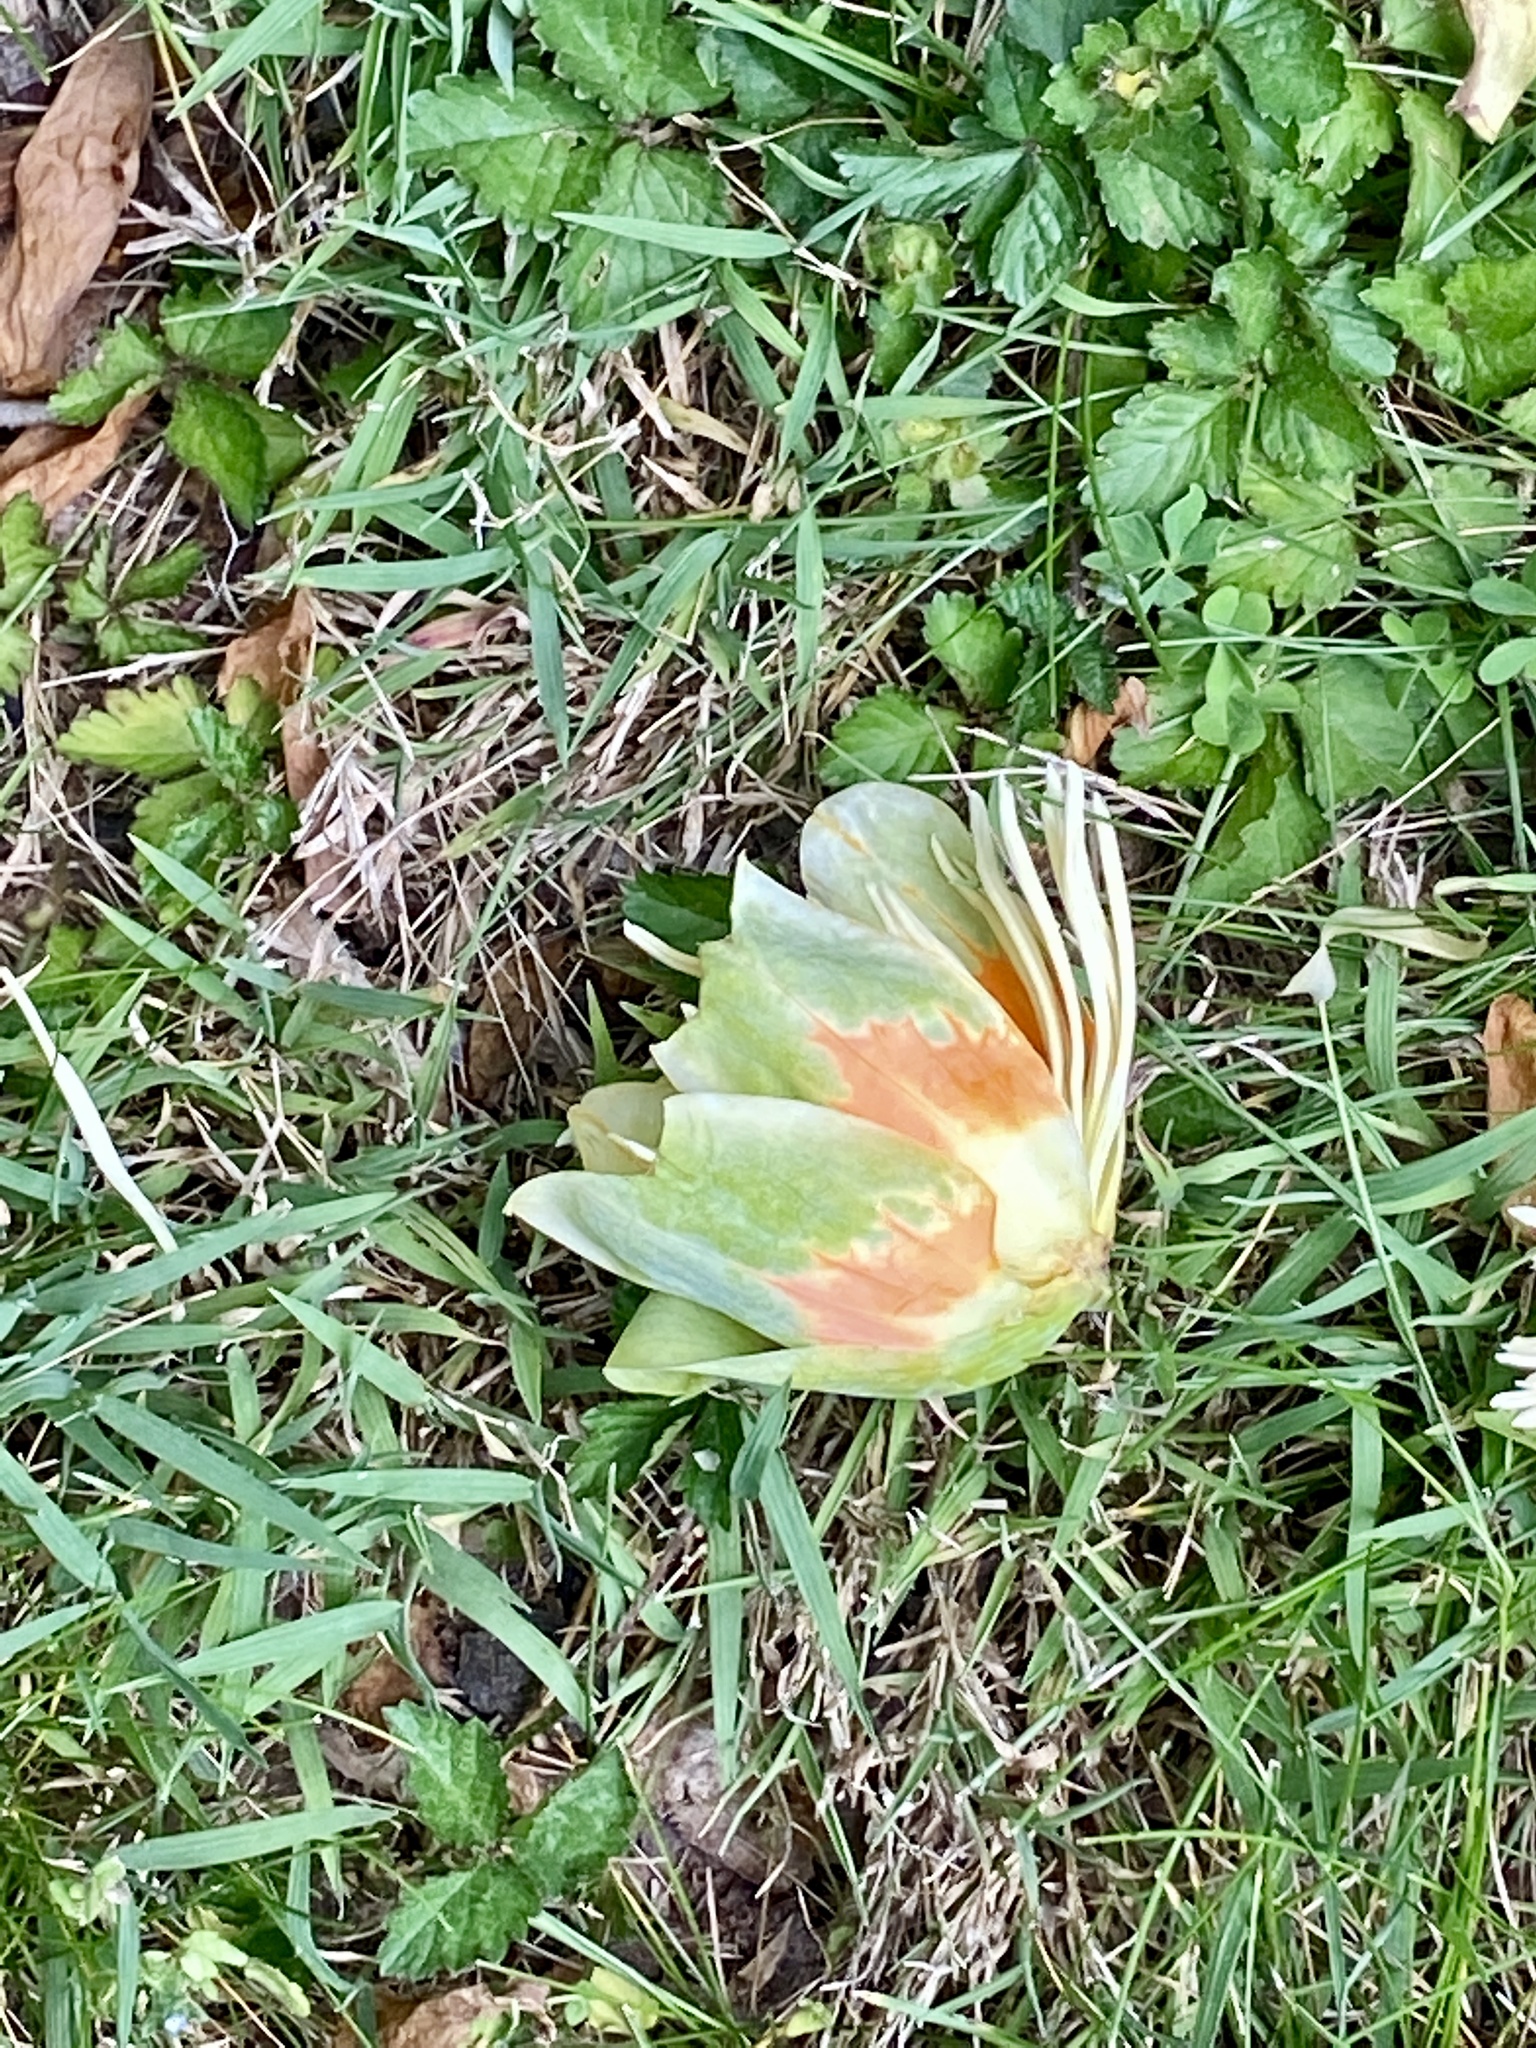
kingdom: Plantae
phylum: Tracheophyta
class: Magnoliopsida
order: Magnoliales
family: Magnoliaceae
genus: Liriodendron
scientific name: Liriodendron tulipifera
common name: Tulip tree
